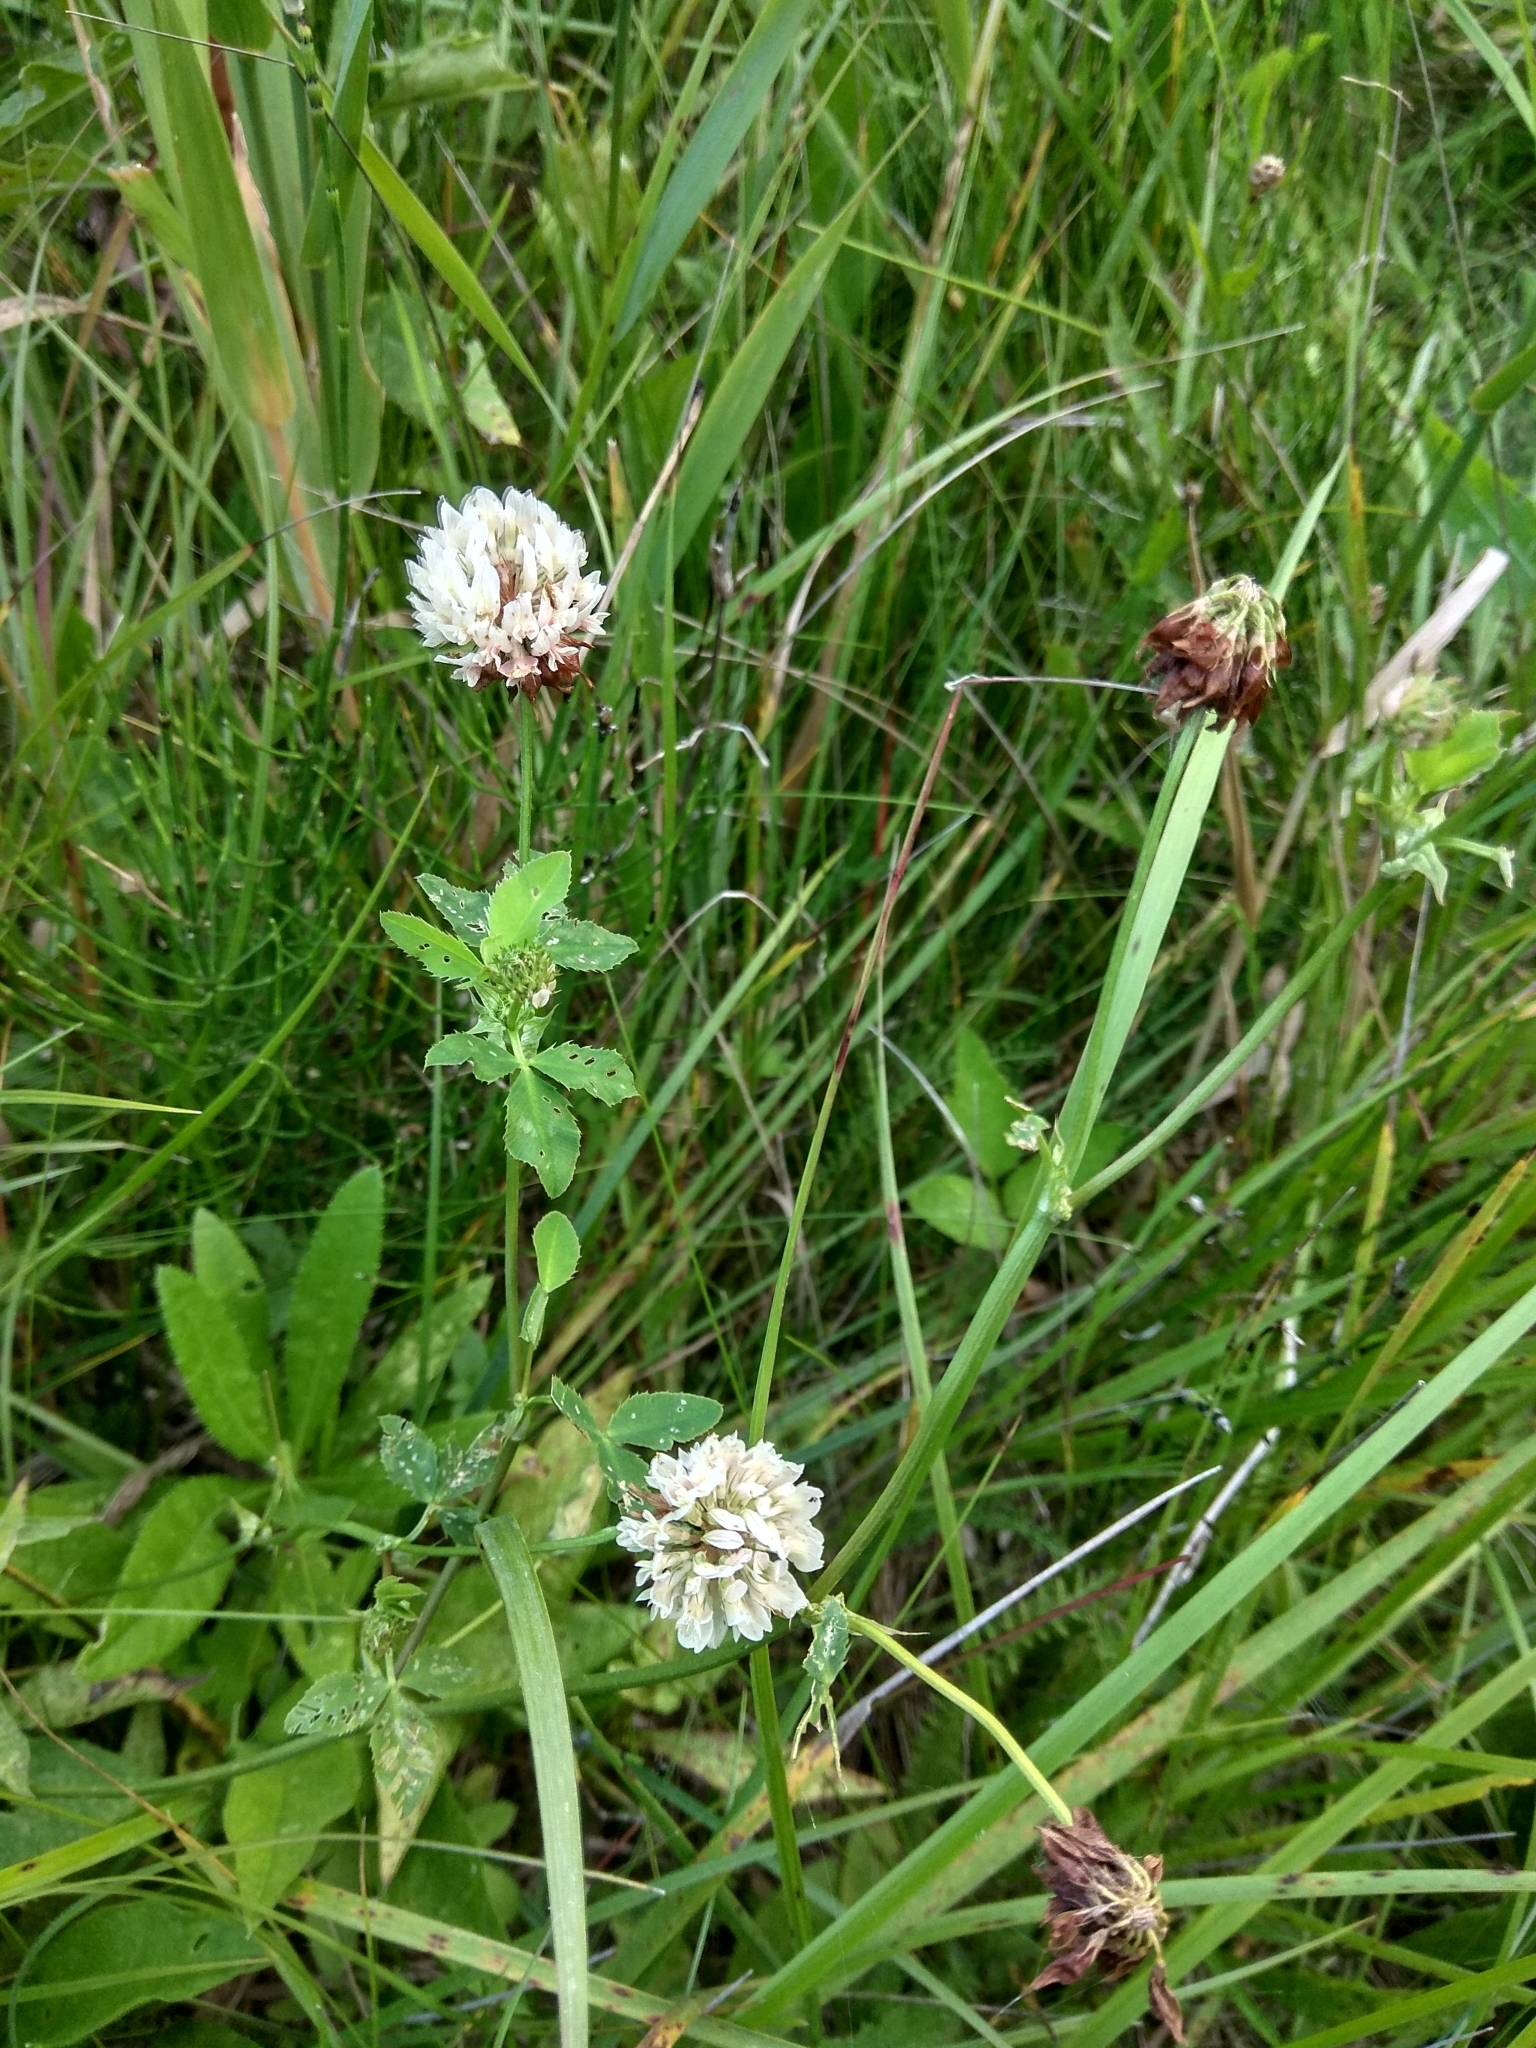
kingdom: Plantae
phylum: Tracheophyta
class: Magnoliopsida
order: Fabales
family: Fabaceae
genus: Trifolium
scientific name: Trifolium hybridum
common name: Alsike clover
